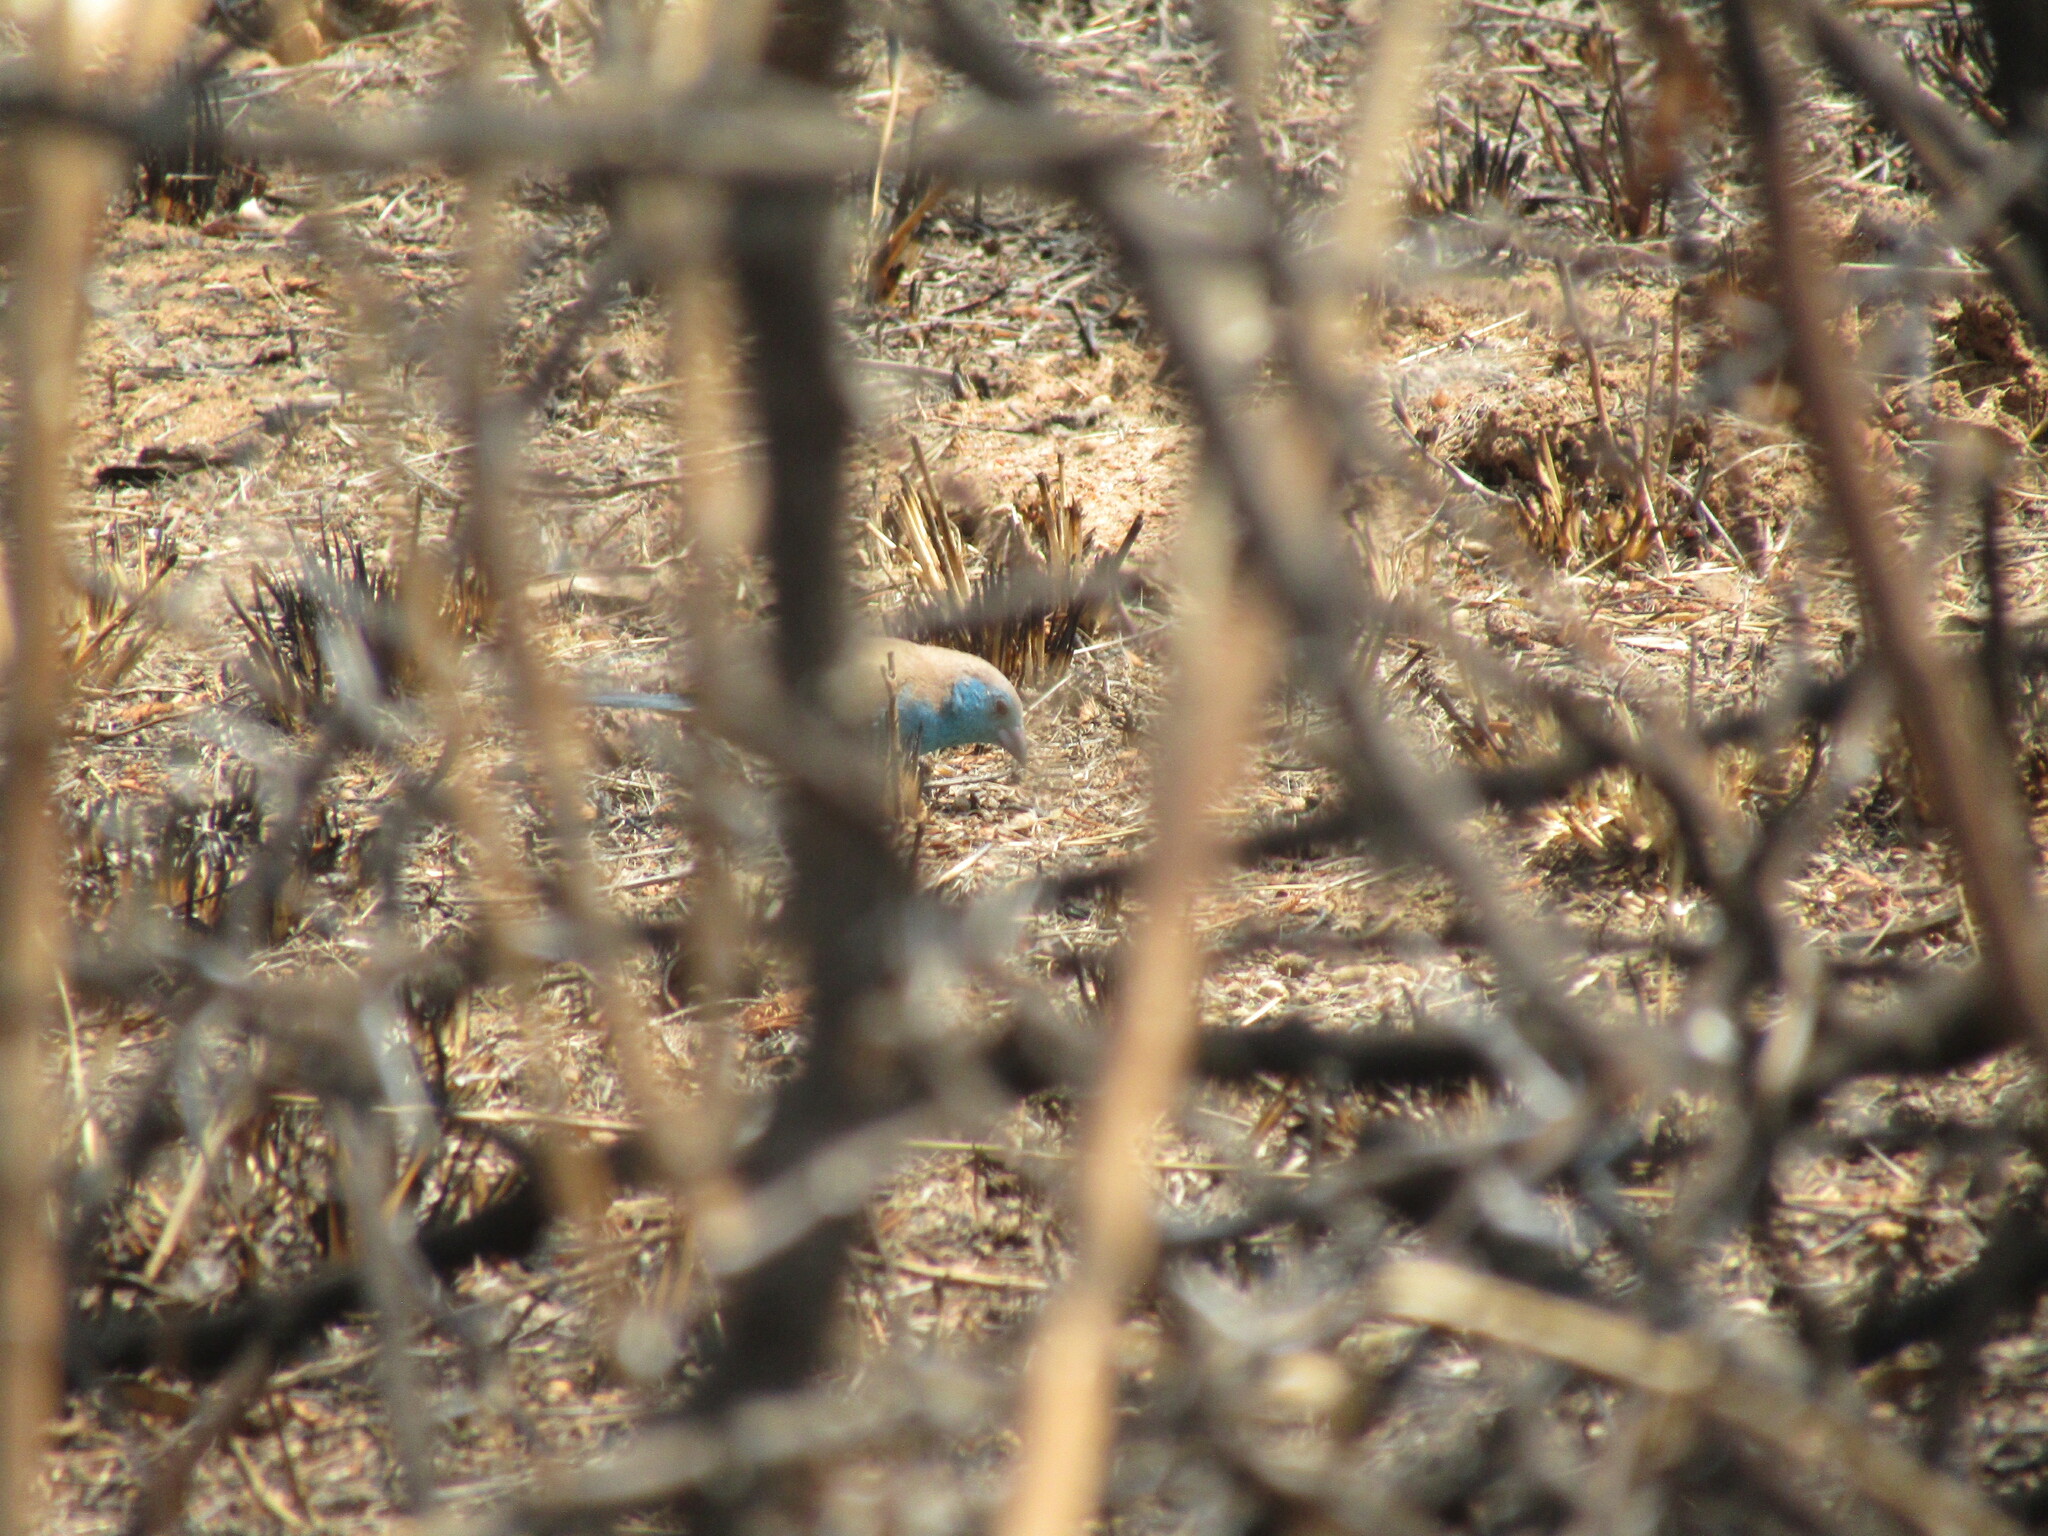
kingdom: Animalia
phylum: Chordata
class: Aves
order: Passeriformes
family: Estrildidae
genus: Uraeginthus
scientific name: Uraeginthus angolensis
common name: Blue waxbill
